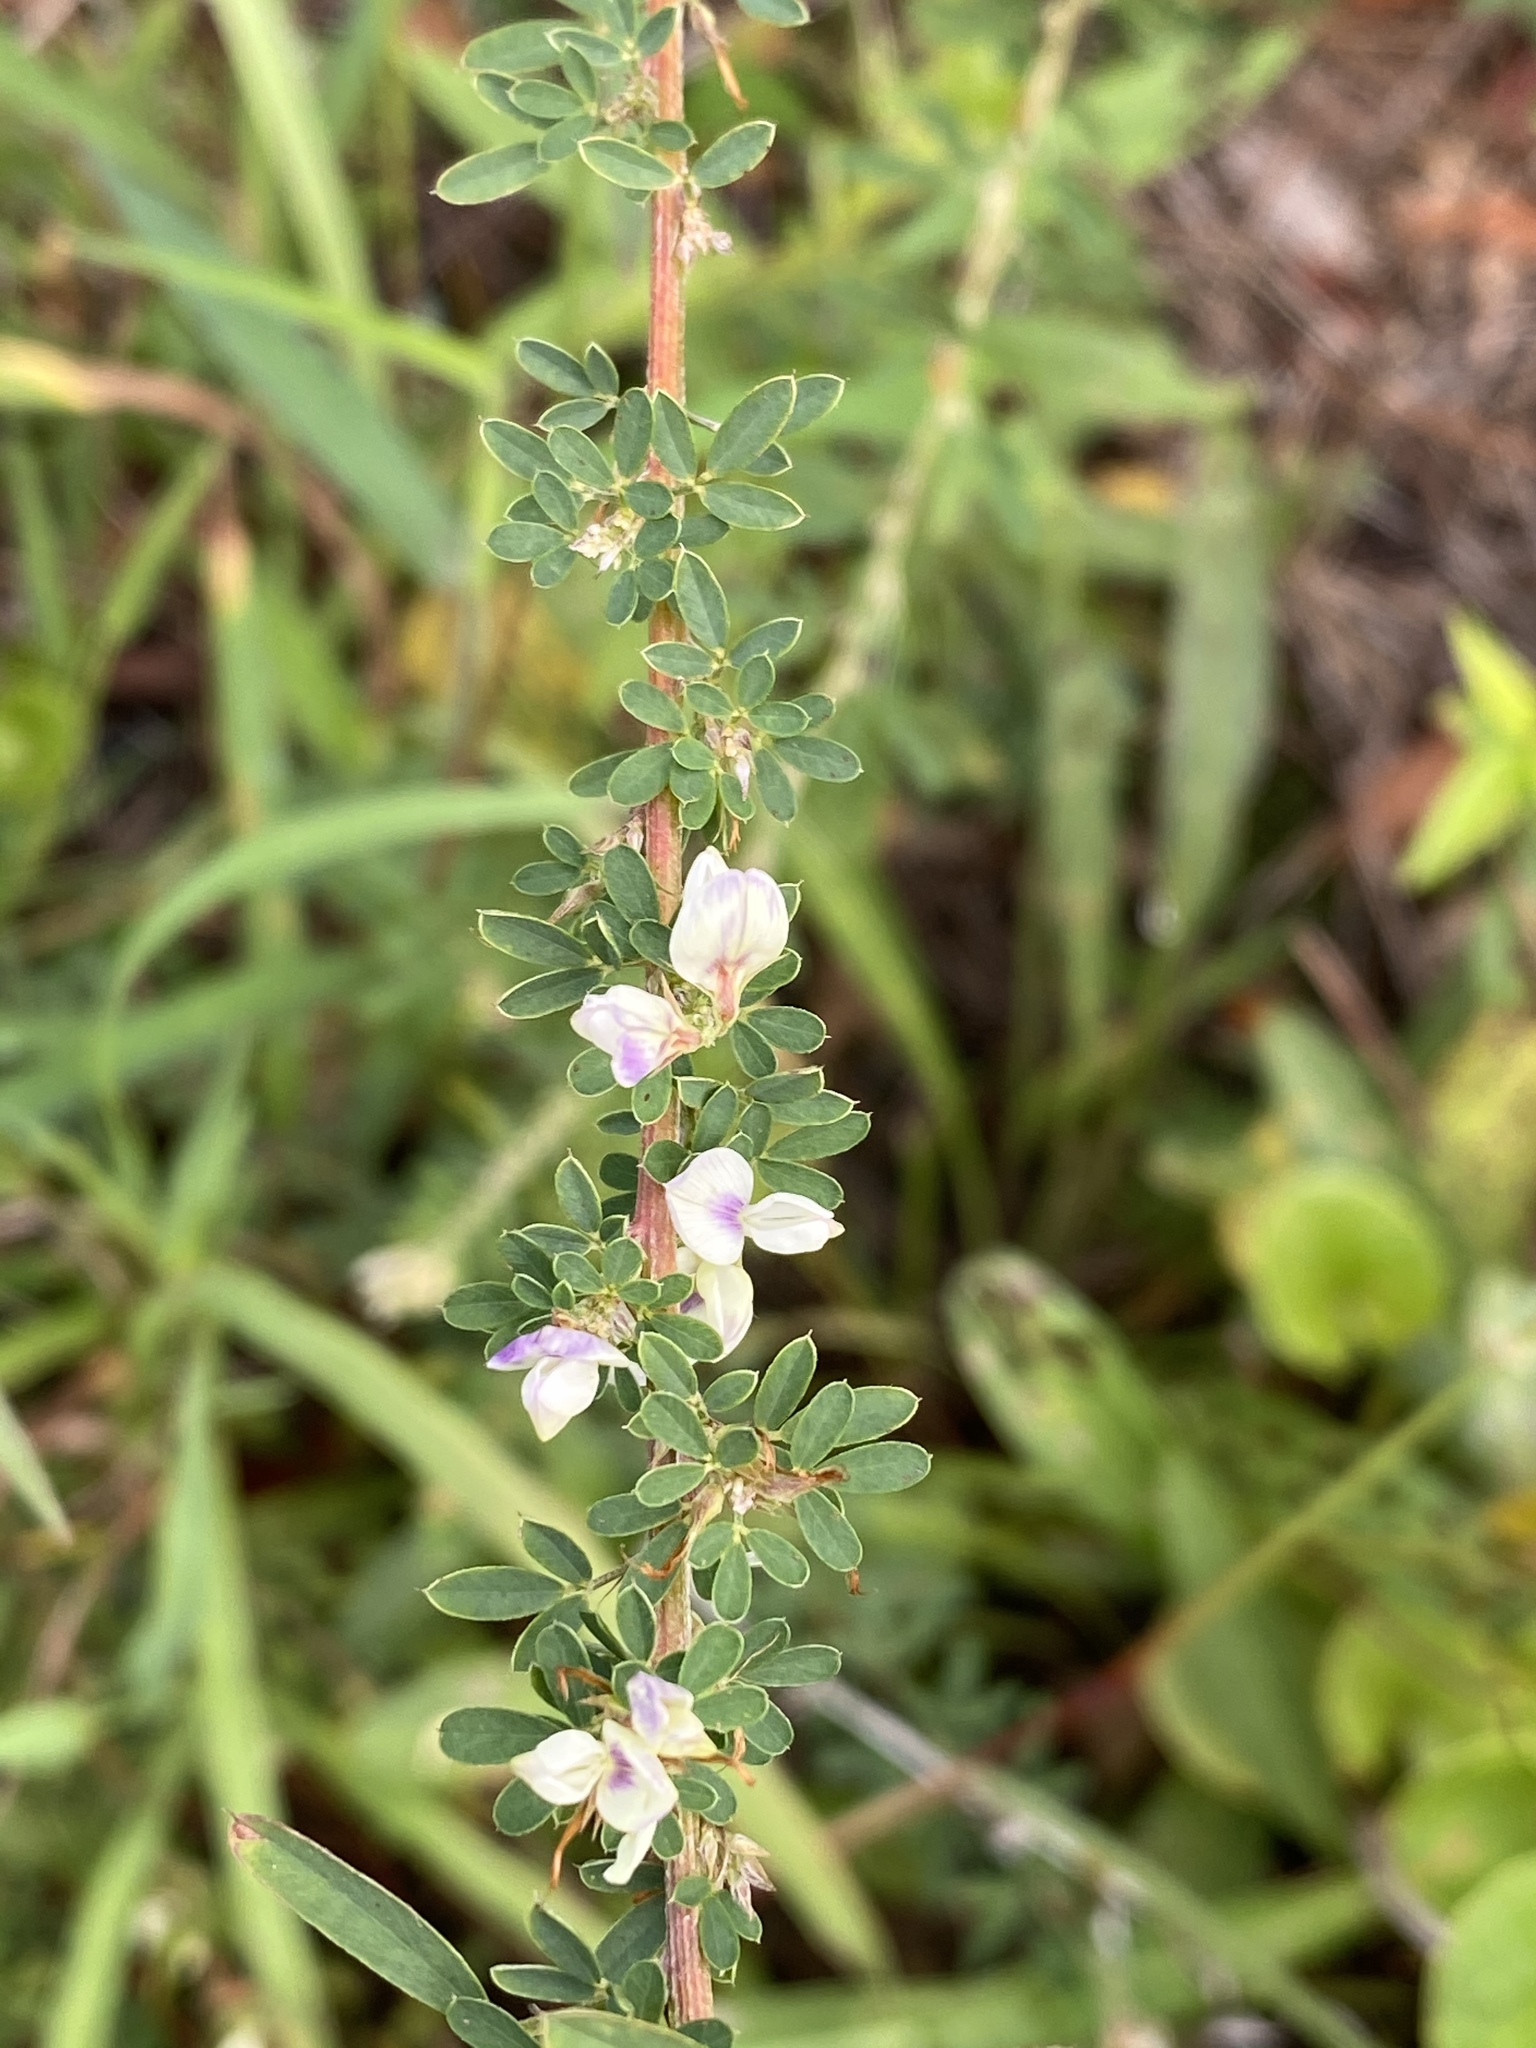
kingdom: Plantae
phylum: Tracheophyta
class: Magnoliopsida
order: Fabales
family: Fabaceae
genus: Lespedeza
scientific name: Lespedeza cuneata
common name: Chinese bush-clover
